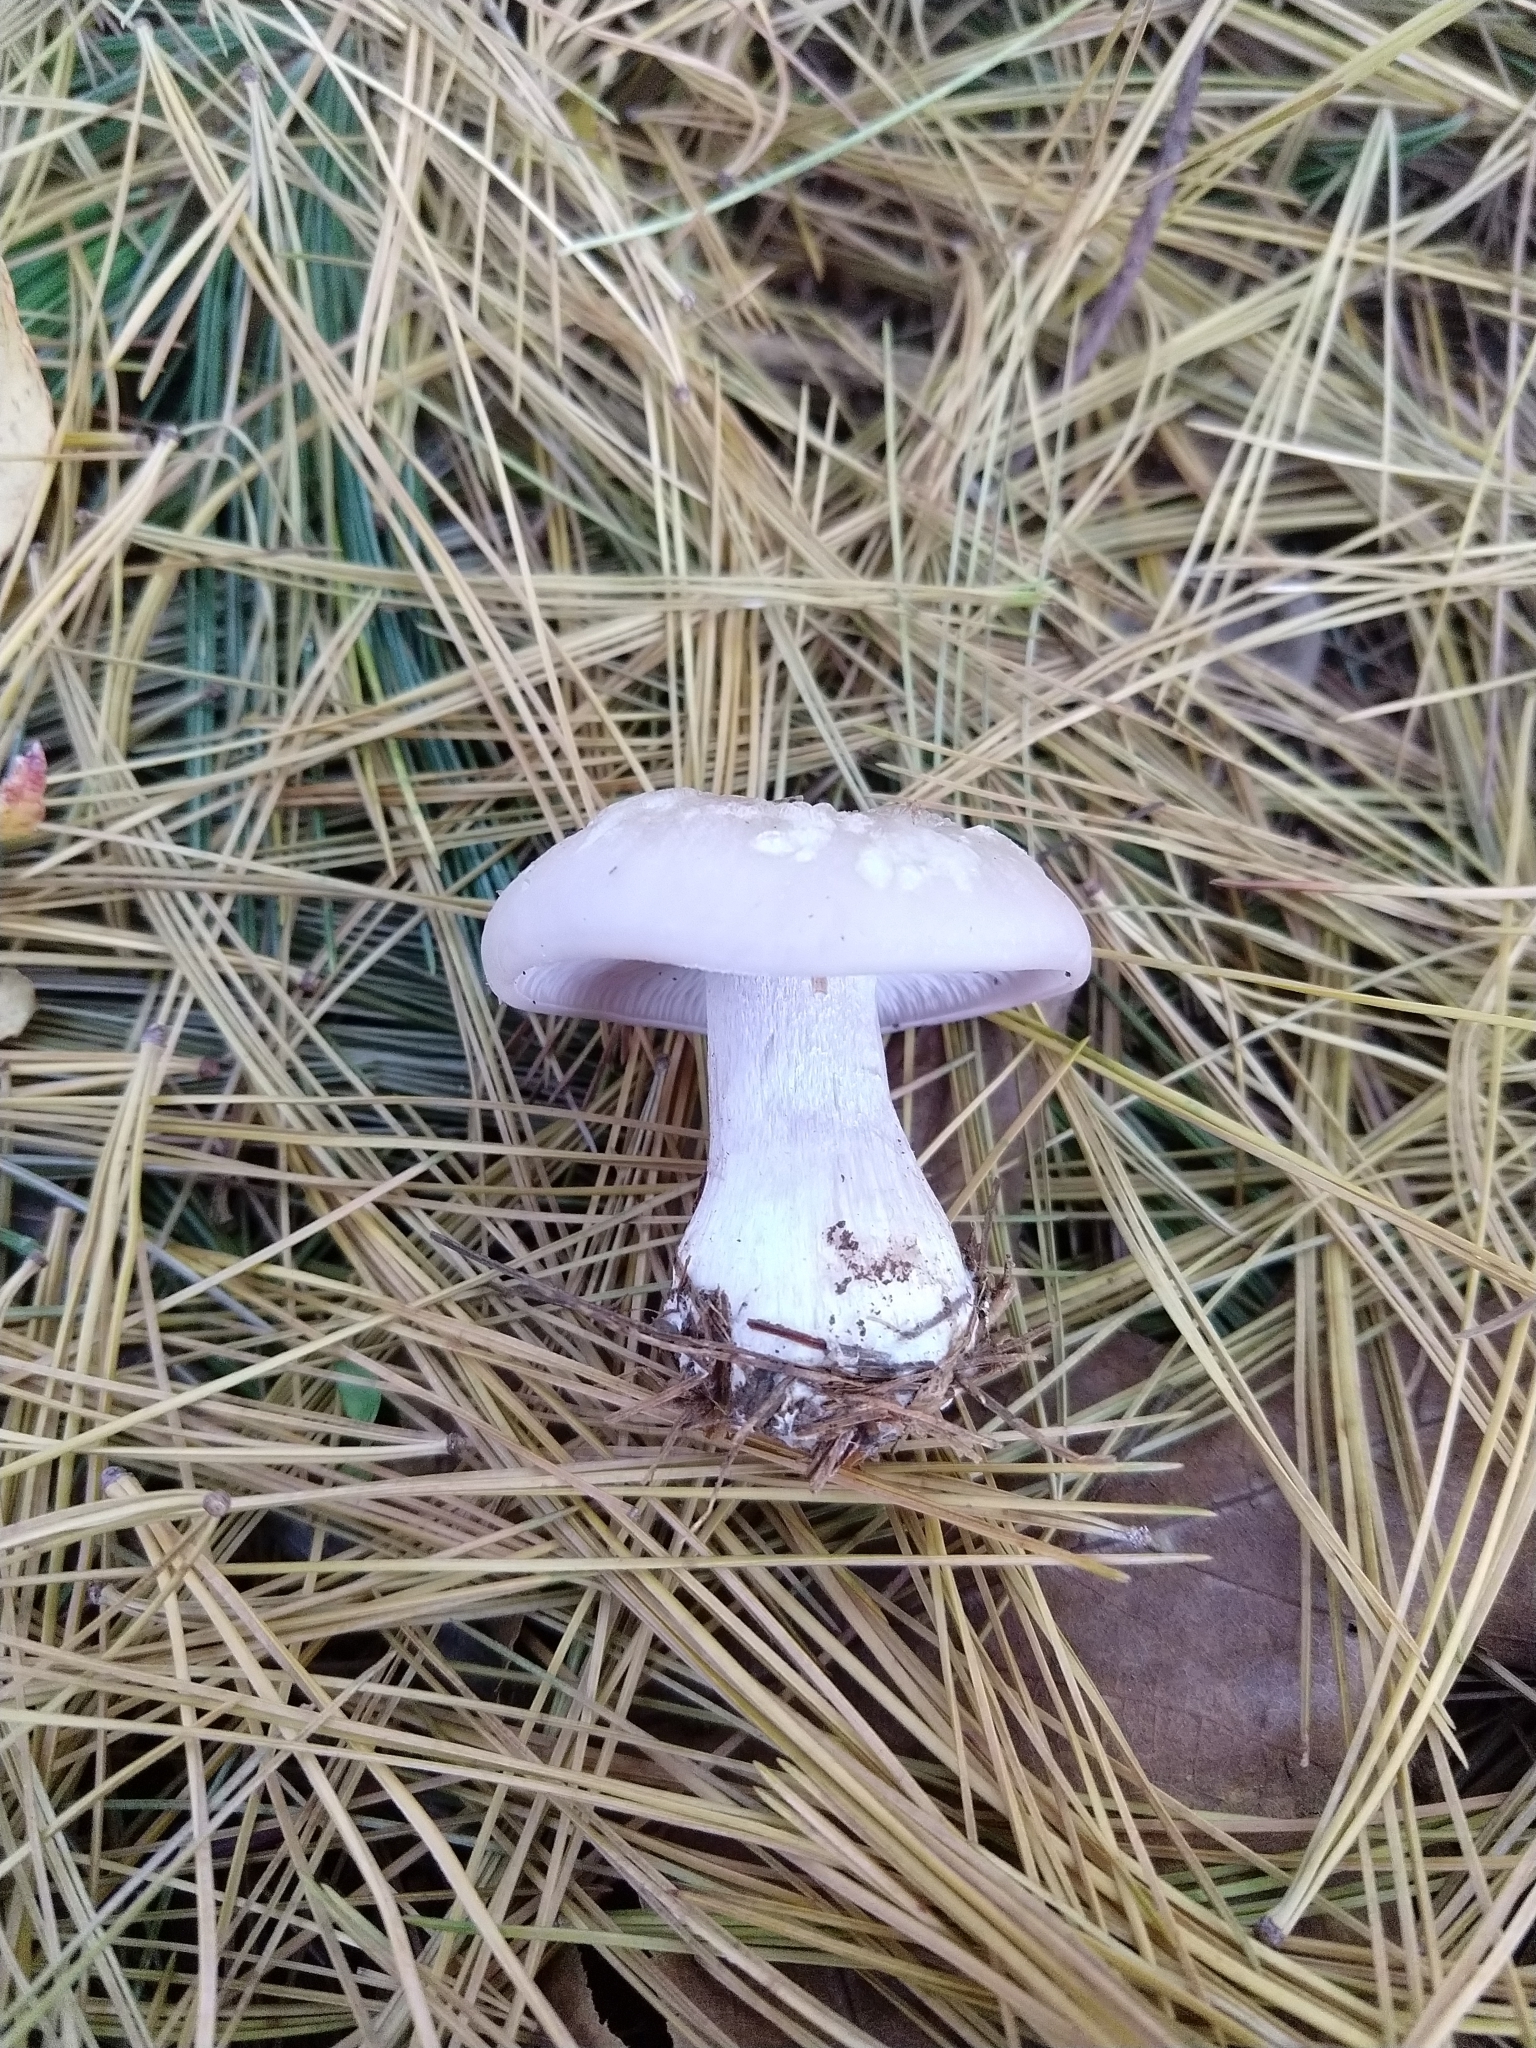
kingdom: Fungi
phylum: Basidiomycota
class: Agaricomycetes
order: Agaricales
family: Tricholomataceae
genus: Collybia
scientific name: Collybia
